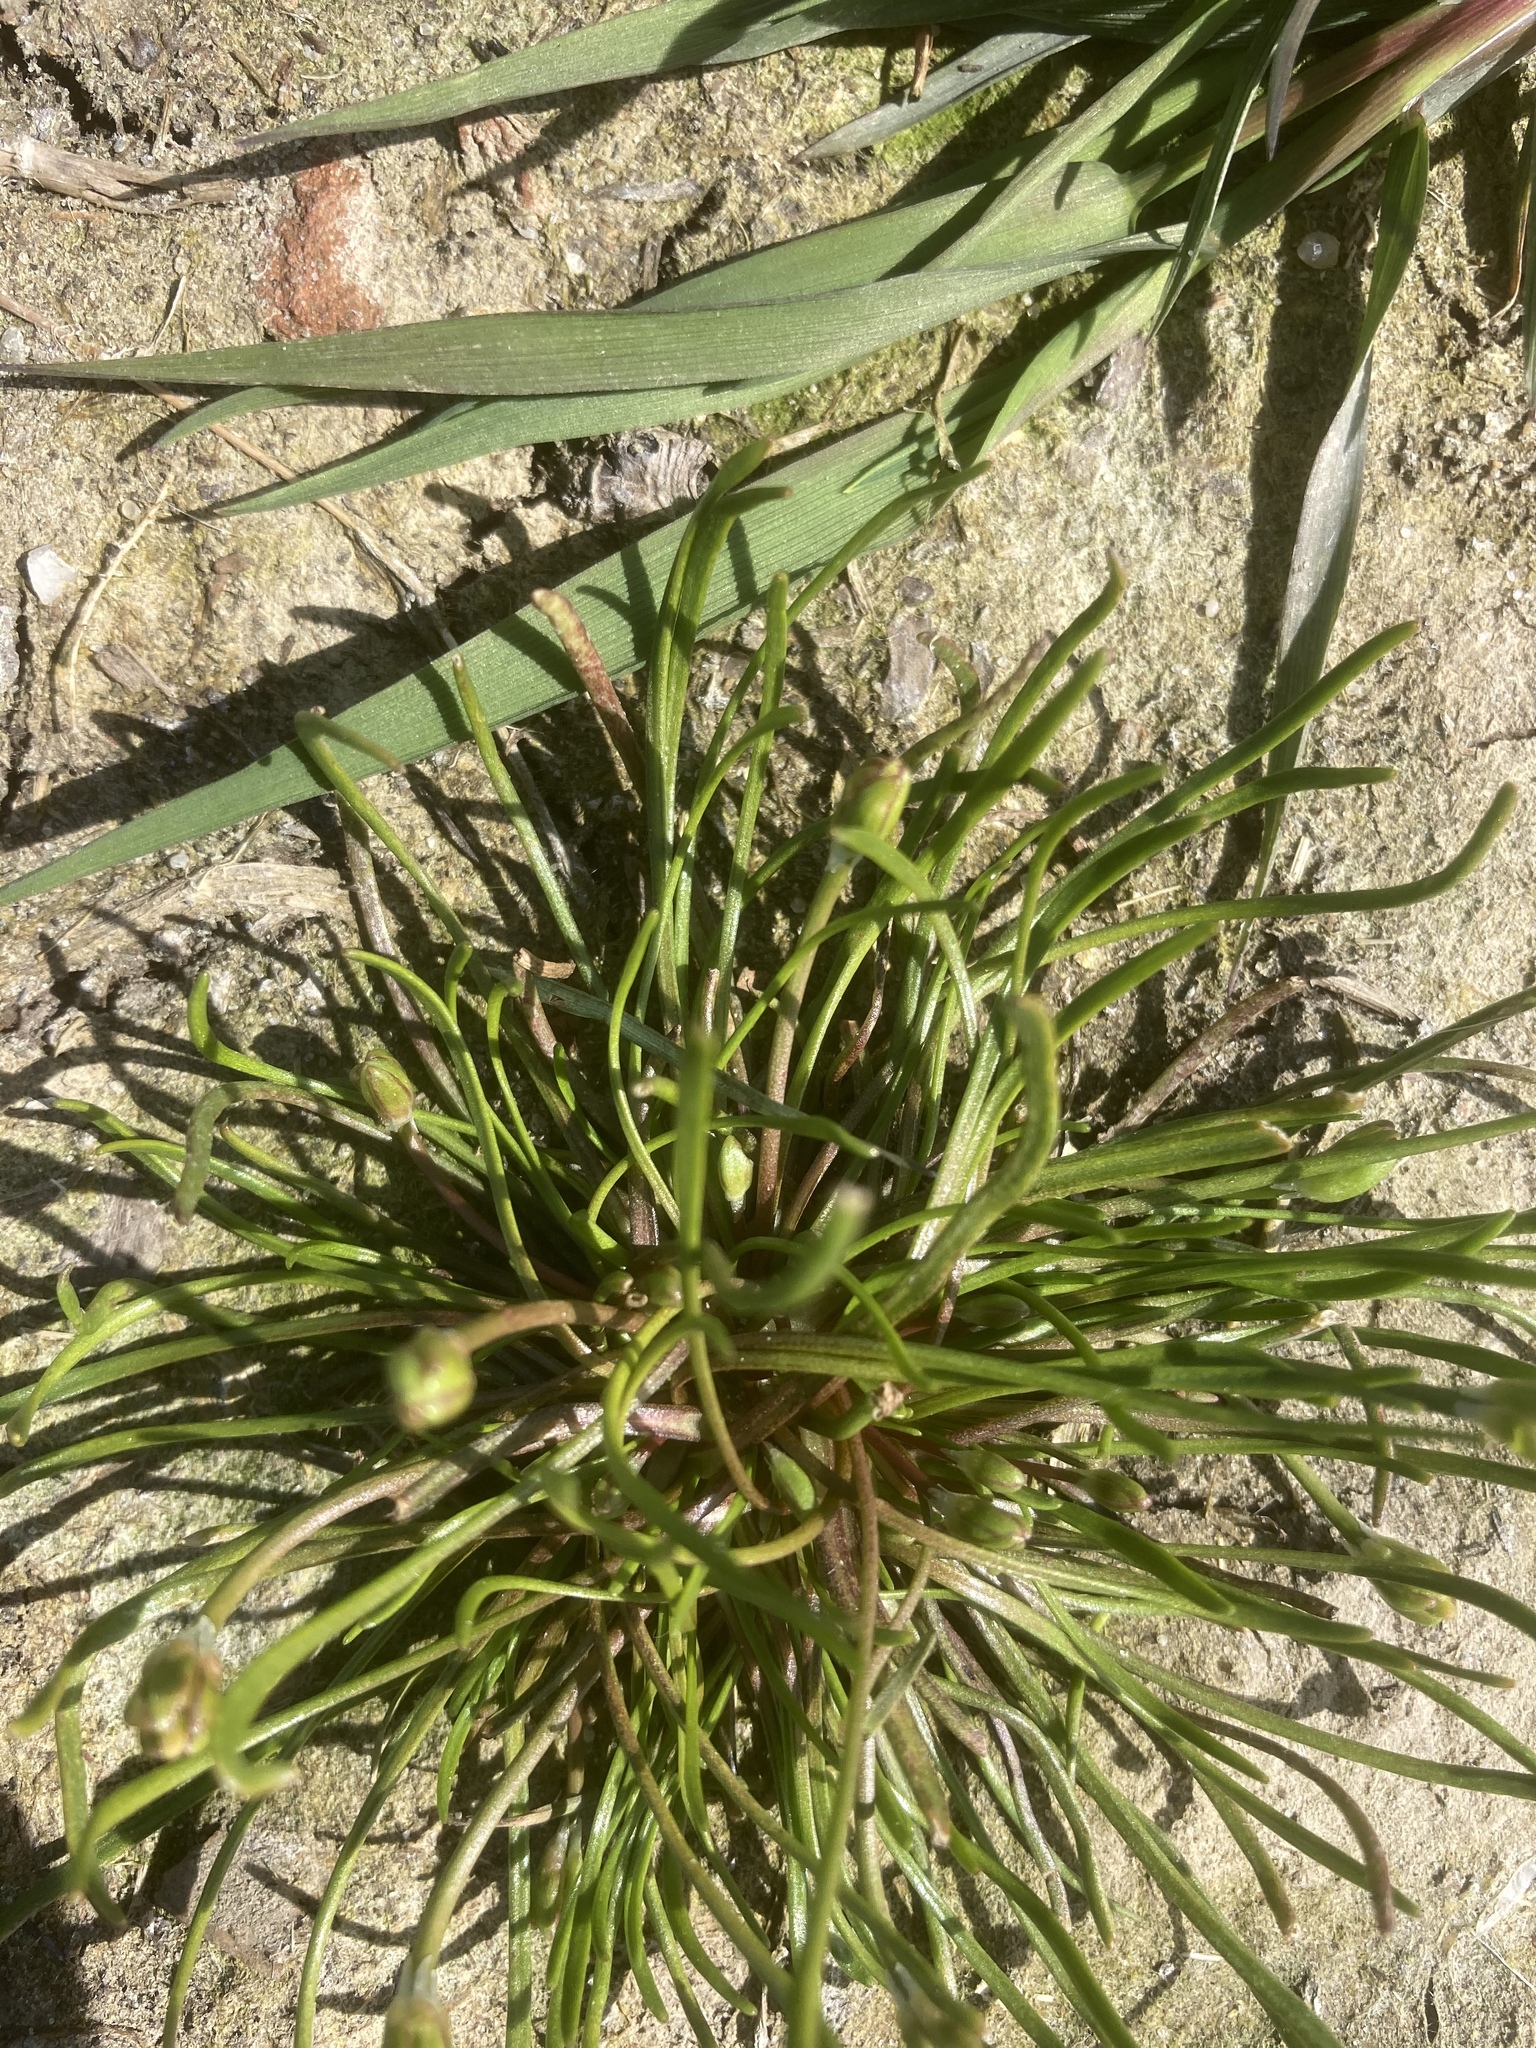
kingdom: Plantae
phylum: Tracheophyta
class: Magnoliopsida
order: Ranunculales
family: Ranunculaceae
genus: Myosurus
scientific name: Myosurus minimus
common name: Mousetail
